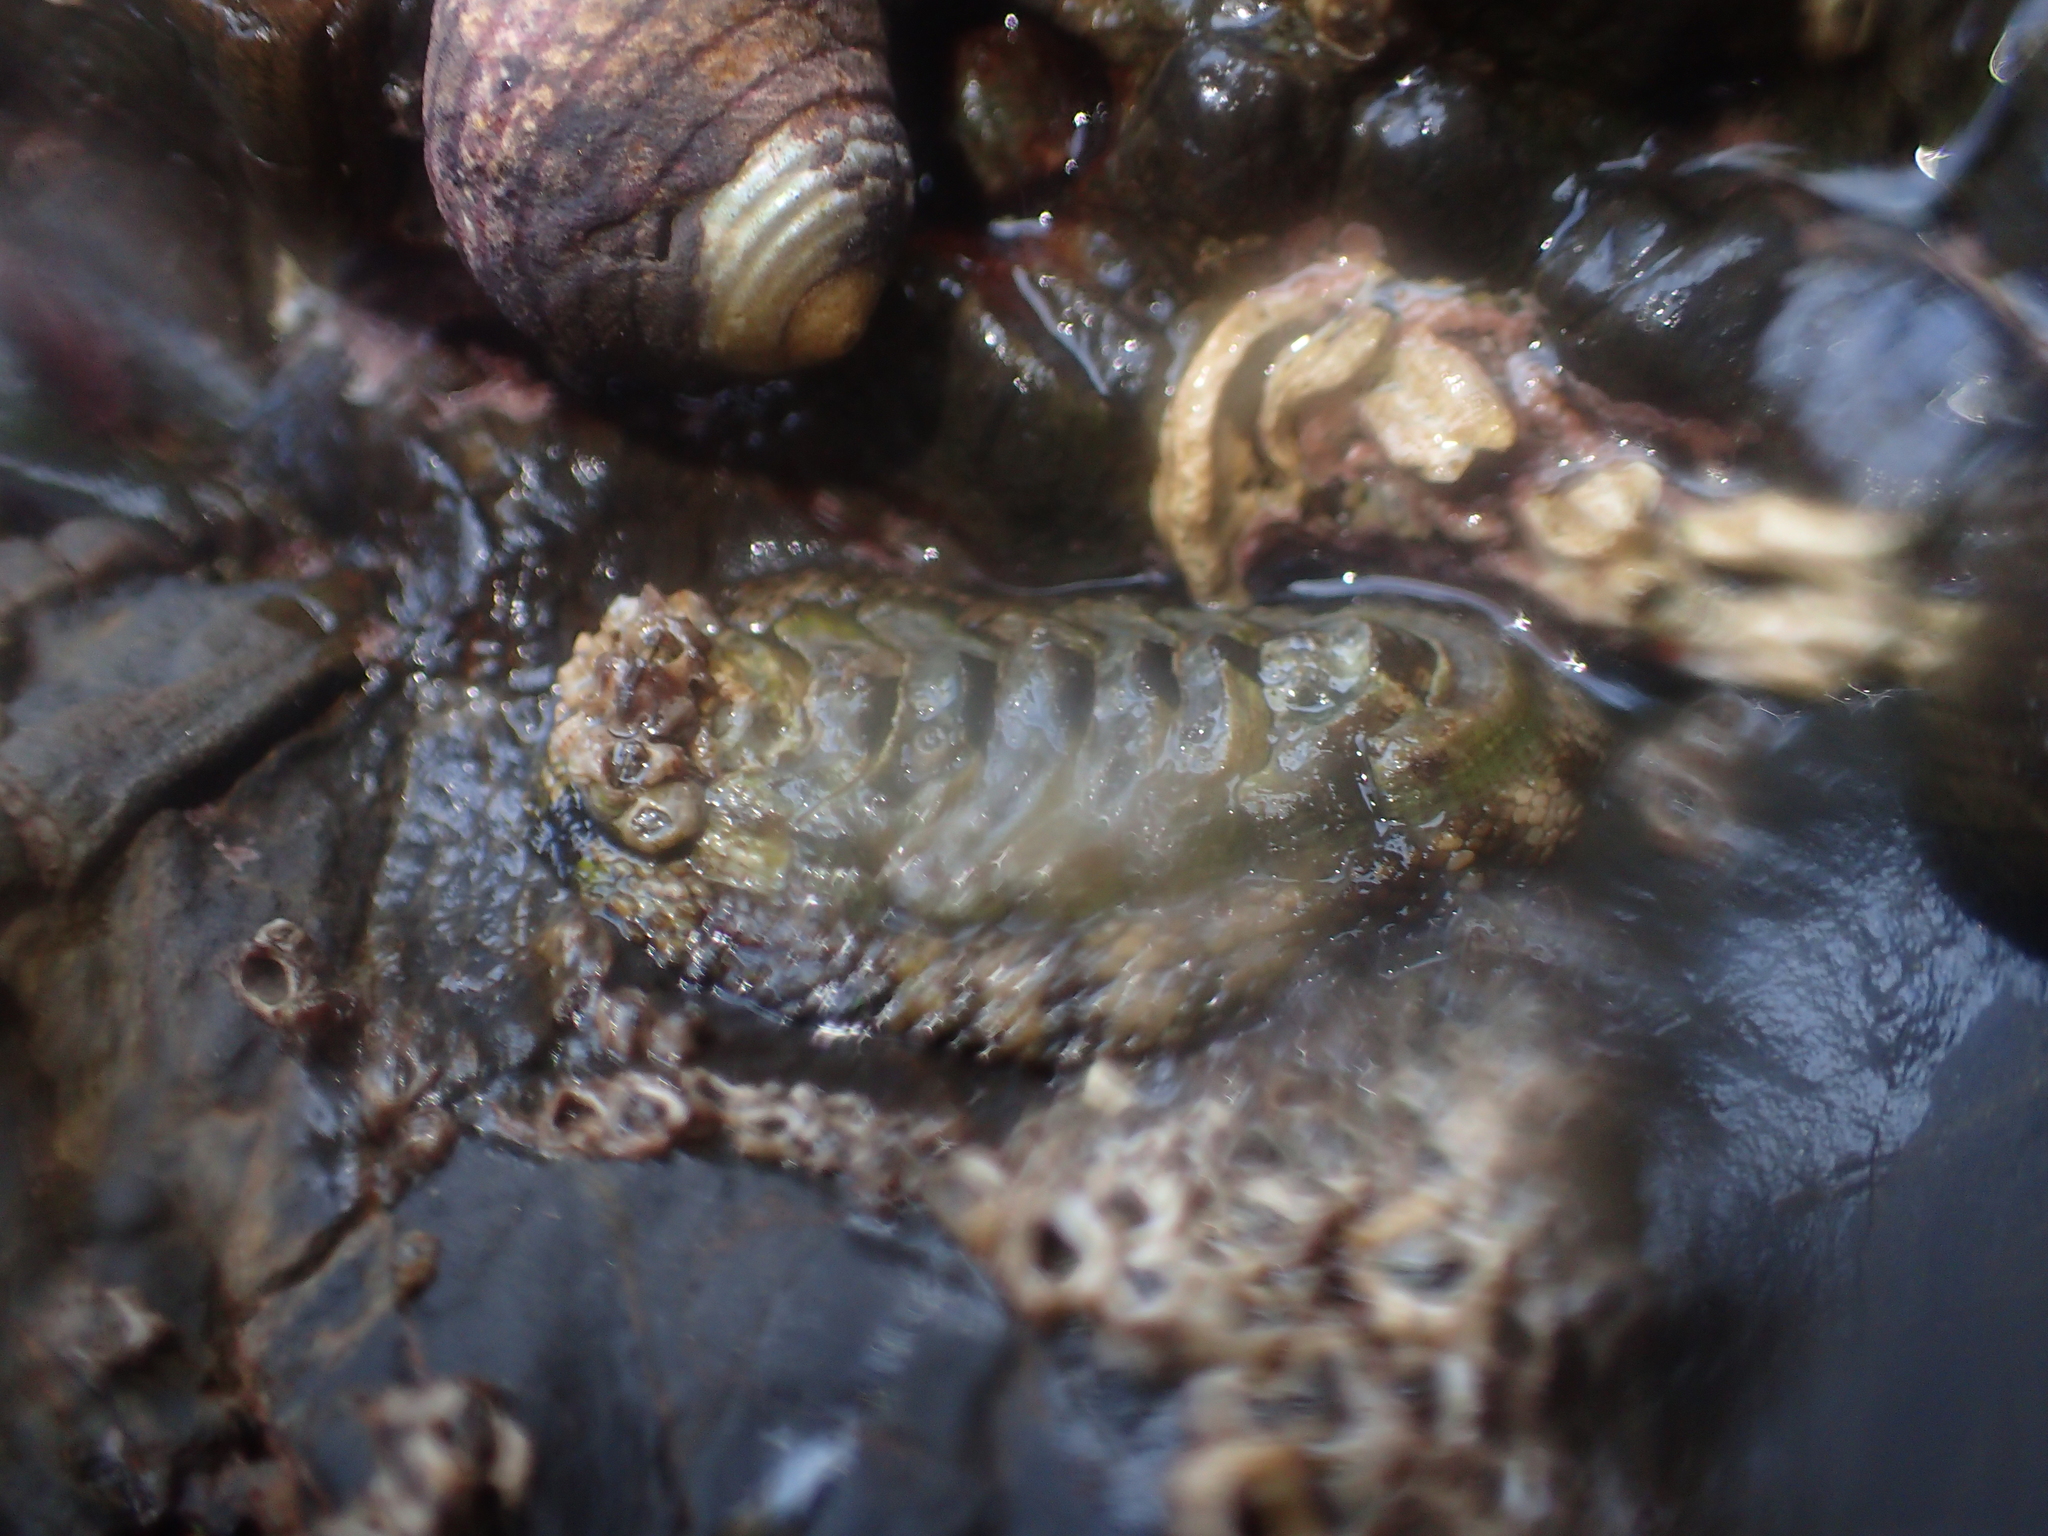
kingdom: Animalia
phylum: Mollusca
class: Polyplacophora
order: Chitonida
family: Chitonidae
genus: Sypharochiton
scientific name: Sypharochiton pelliserpentis
